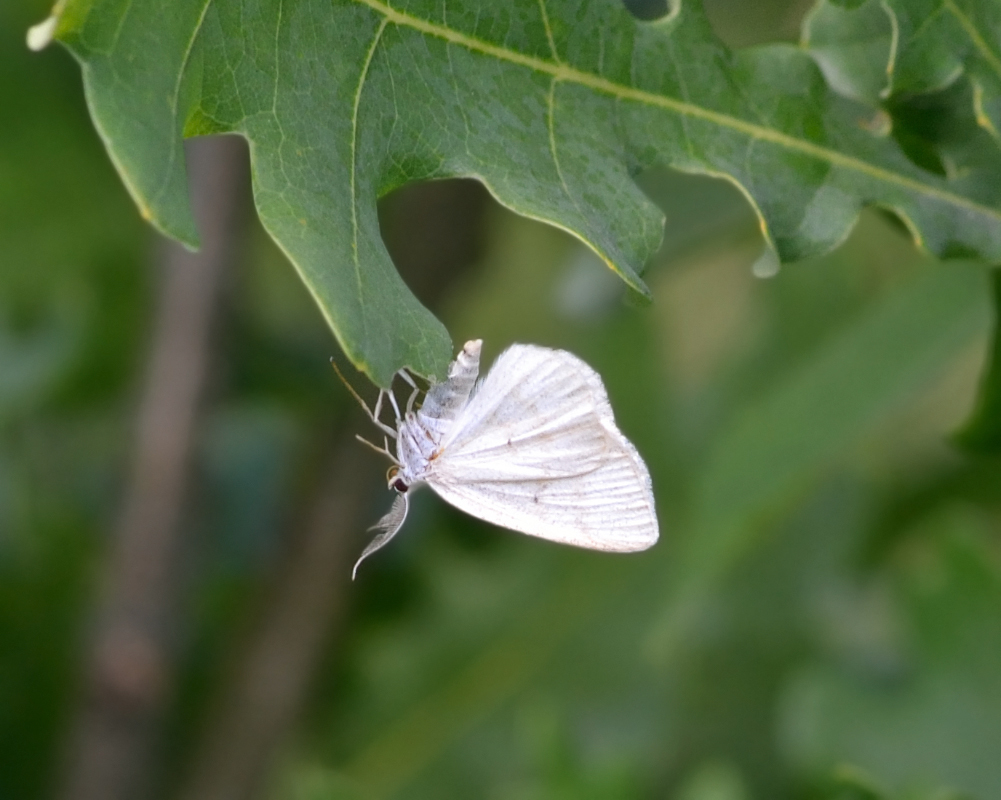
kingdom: Animalia
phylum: Arthropoda
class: Insecta
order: Lepidoptera
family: Geometridae
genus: Cabera
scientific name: Cabera exanthemata
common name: Common wave
